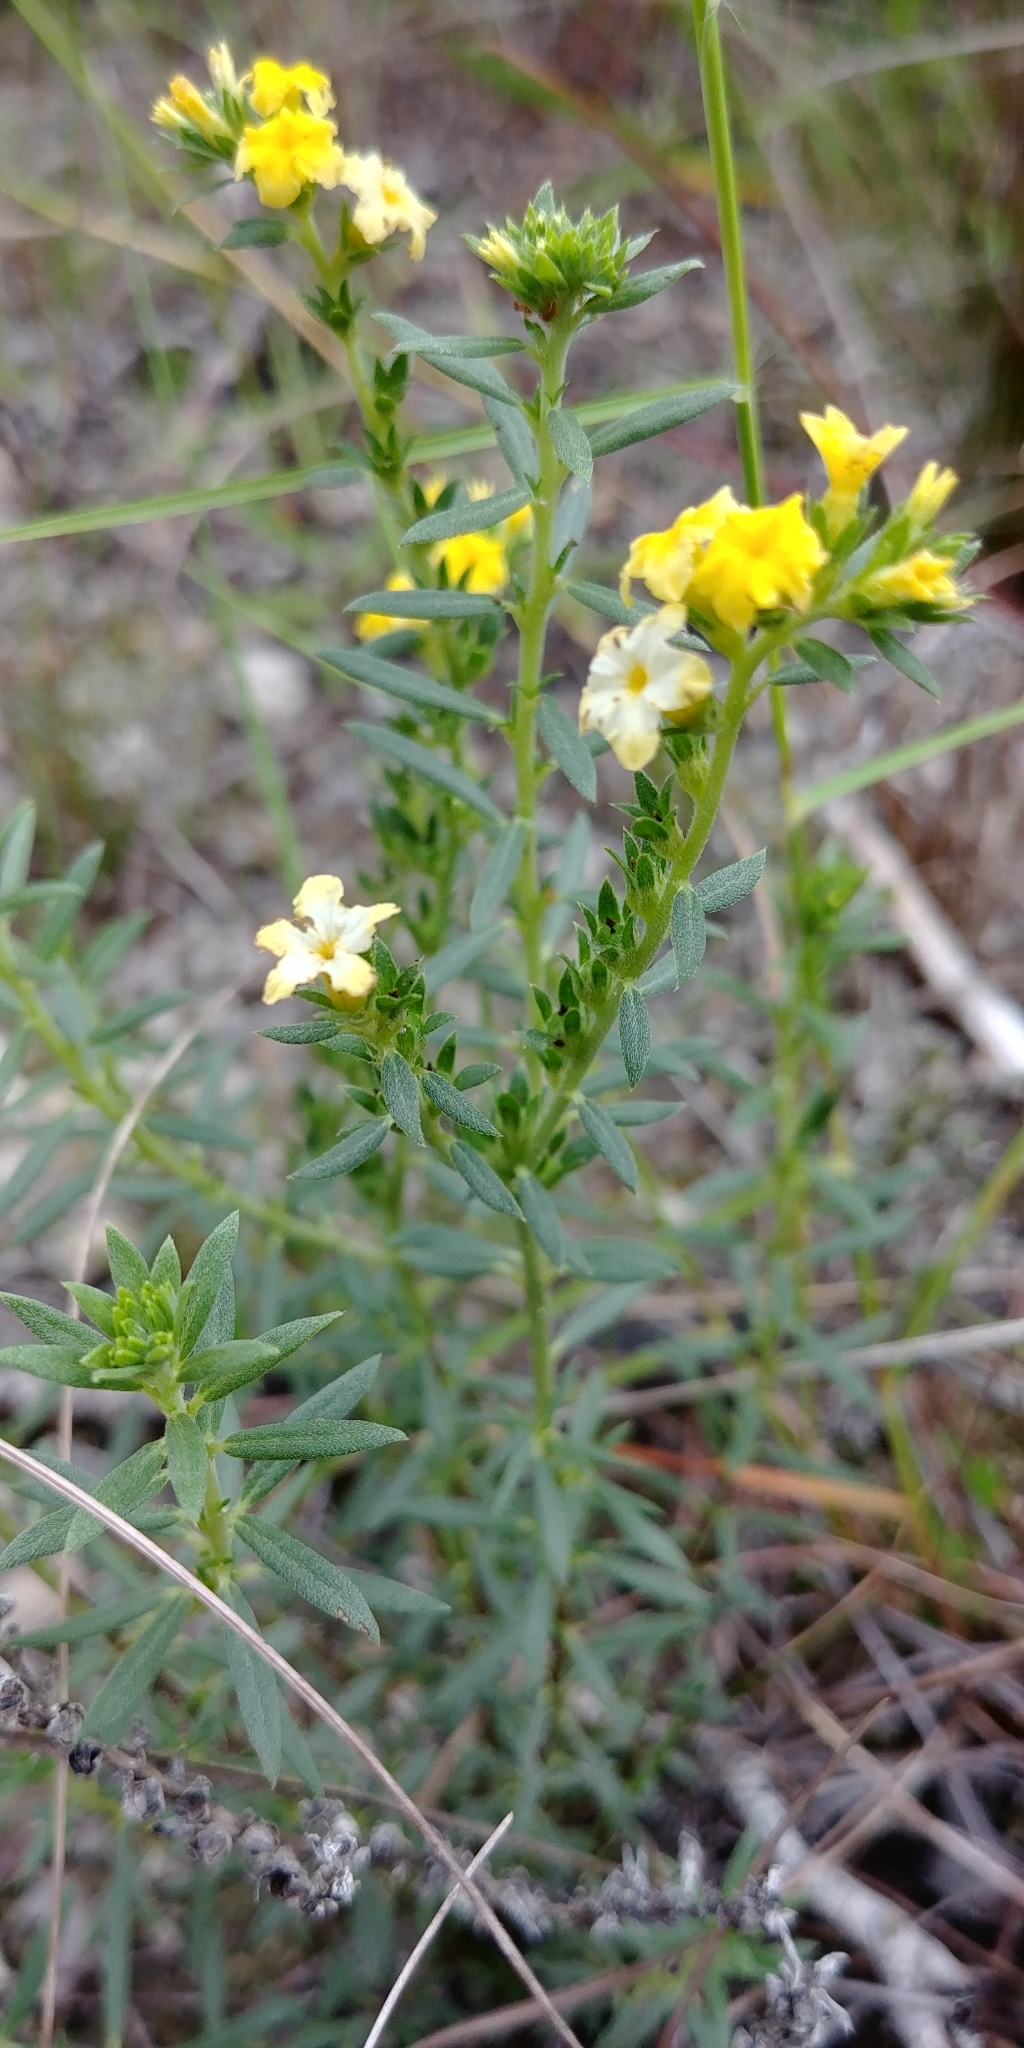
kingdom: Plantae
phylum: Tracheophyta
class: Magnoliopsida
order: Boraginales
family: Heliotropiaceae
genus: Euploca
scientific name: Euploca polyphylla
